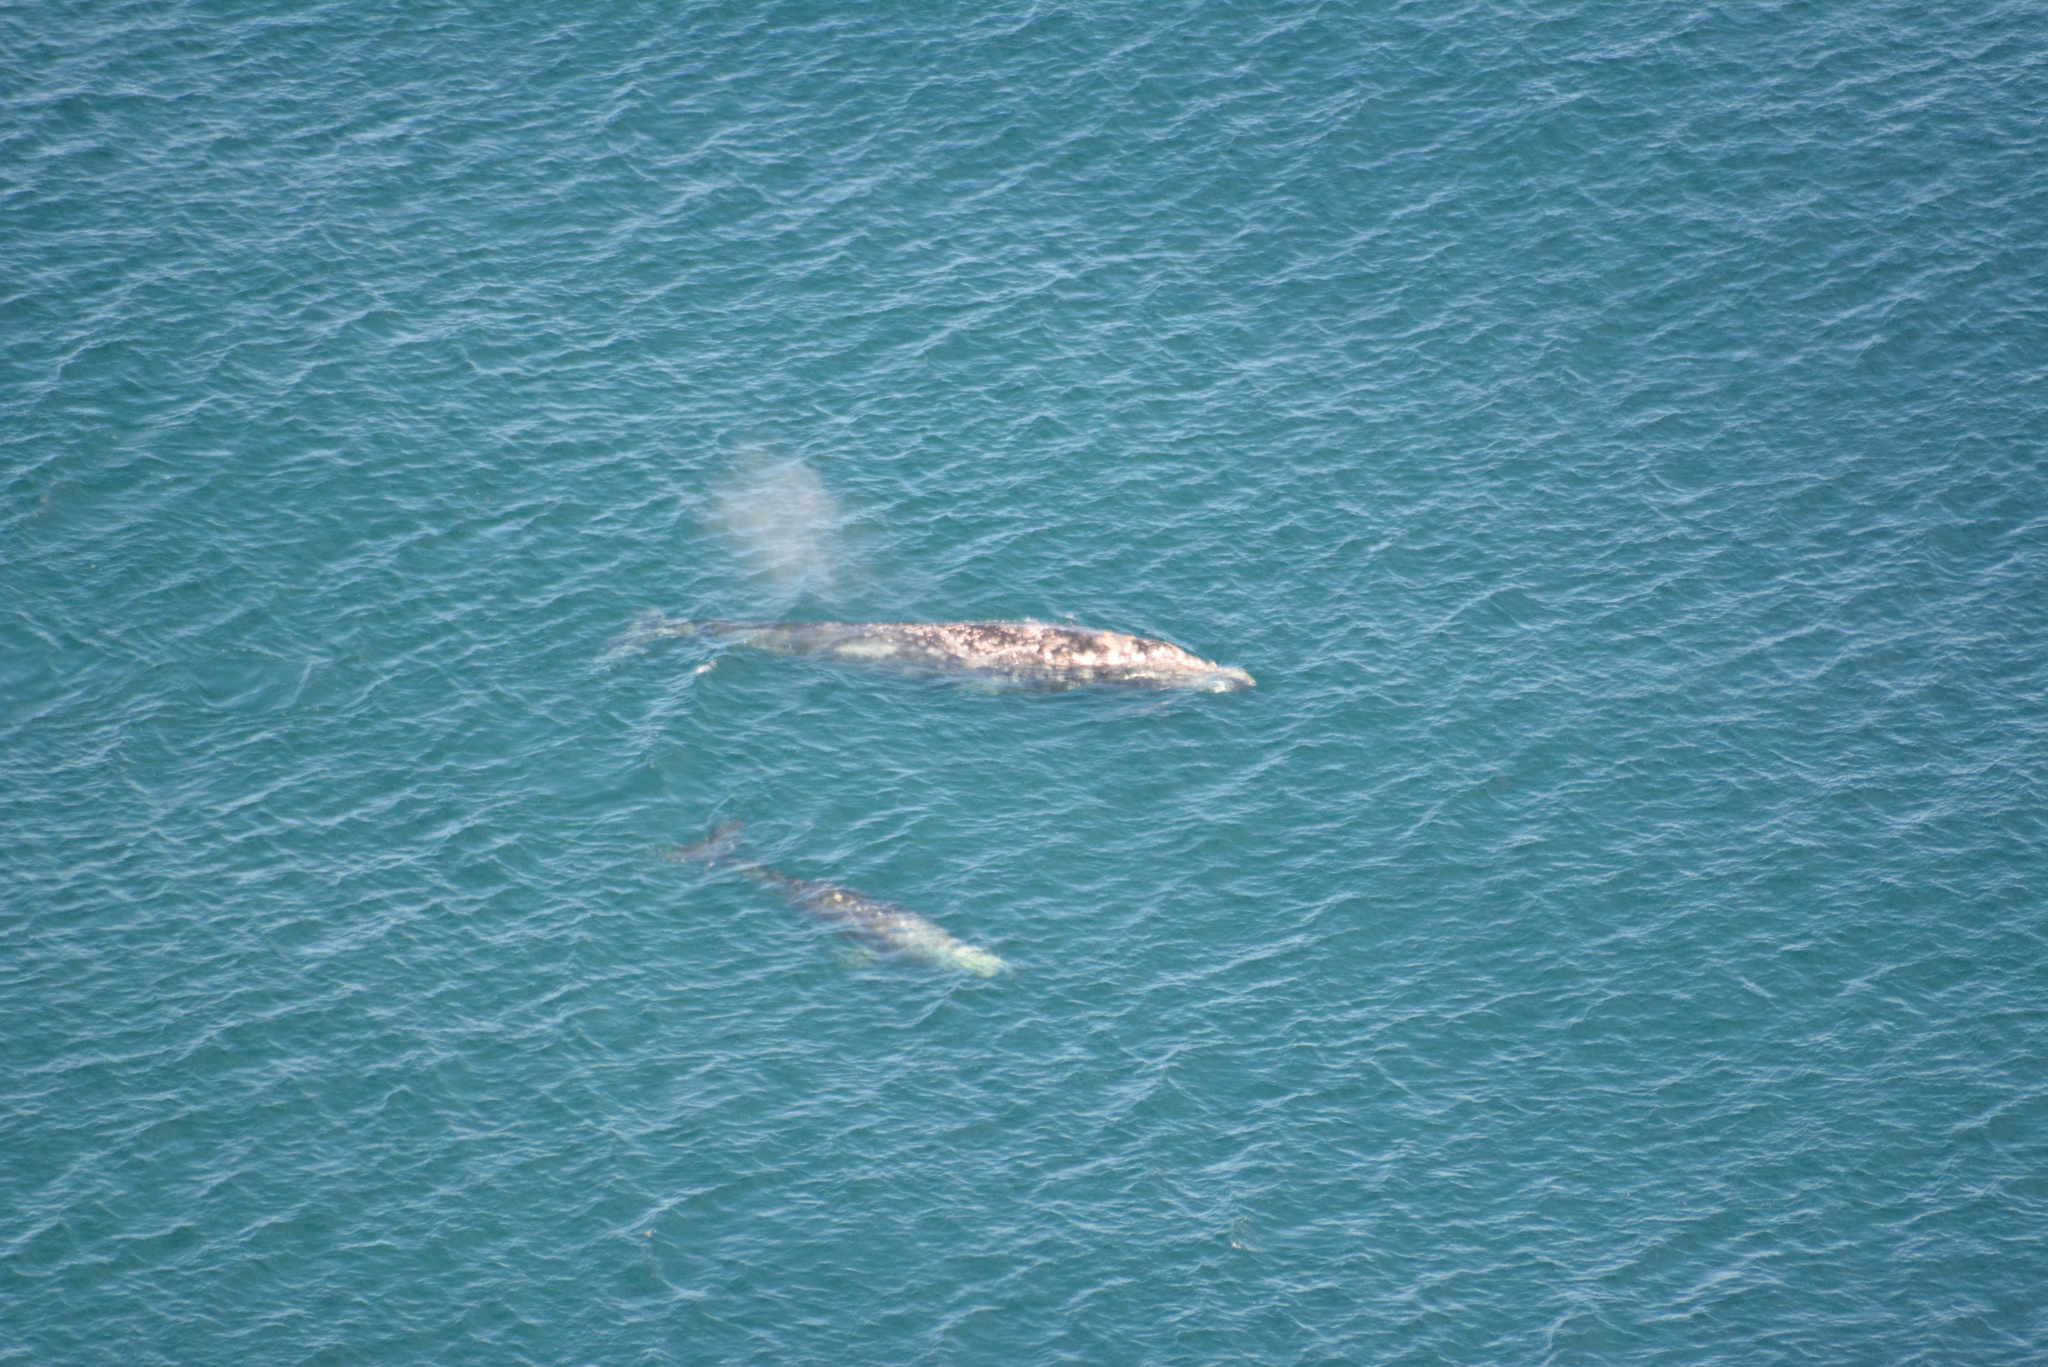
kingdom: Animalia
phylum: Chordata
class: Mammalia
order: Cetacea
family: Eschrichtiidae
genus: Eschrichtius
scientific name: Eschrichtius robustus
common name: Gray whale
